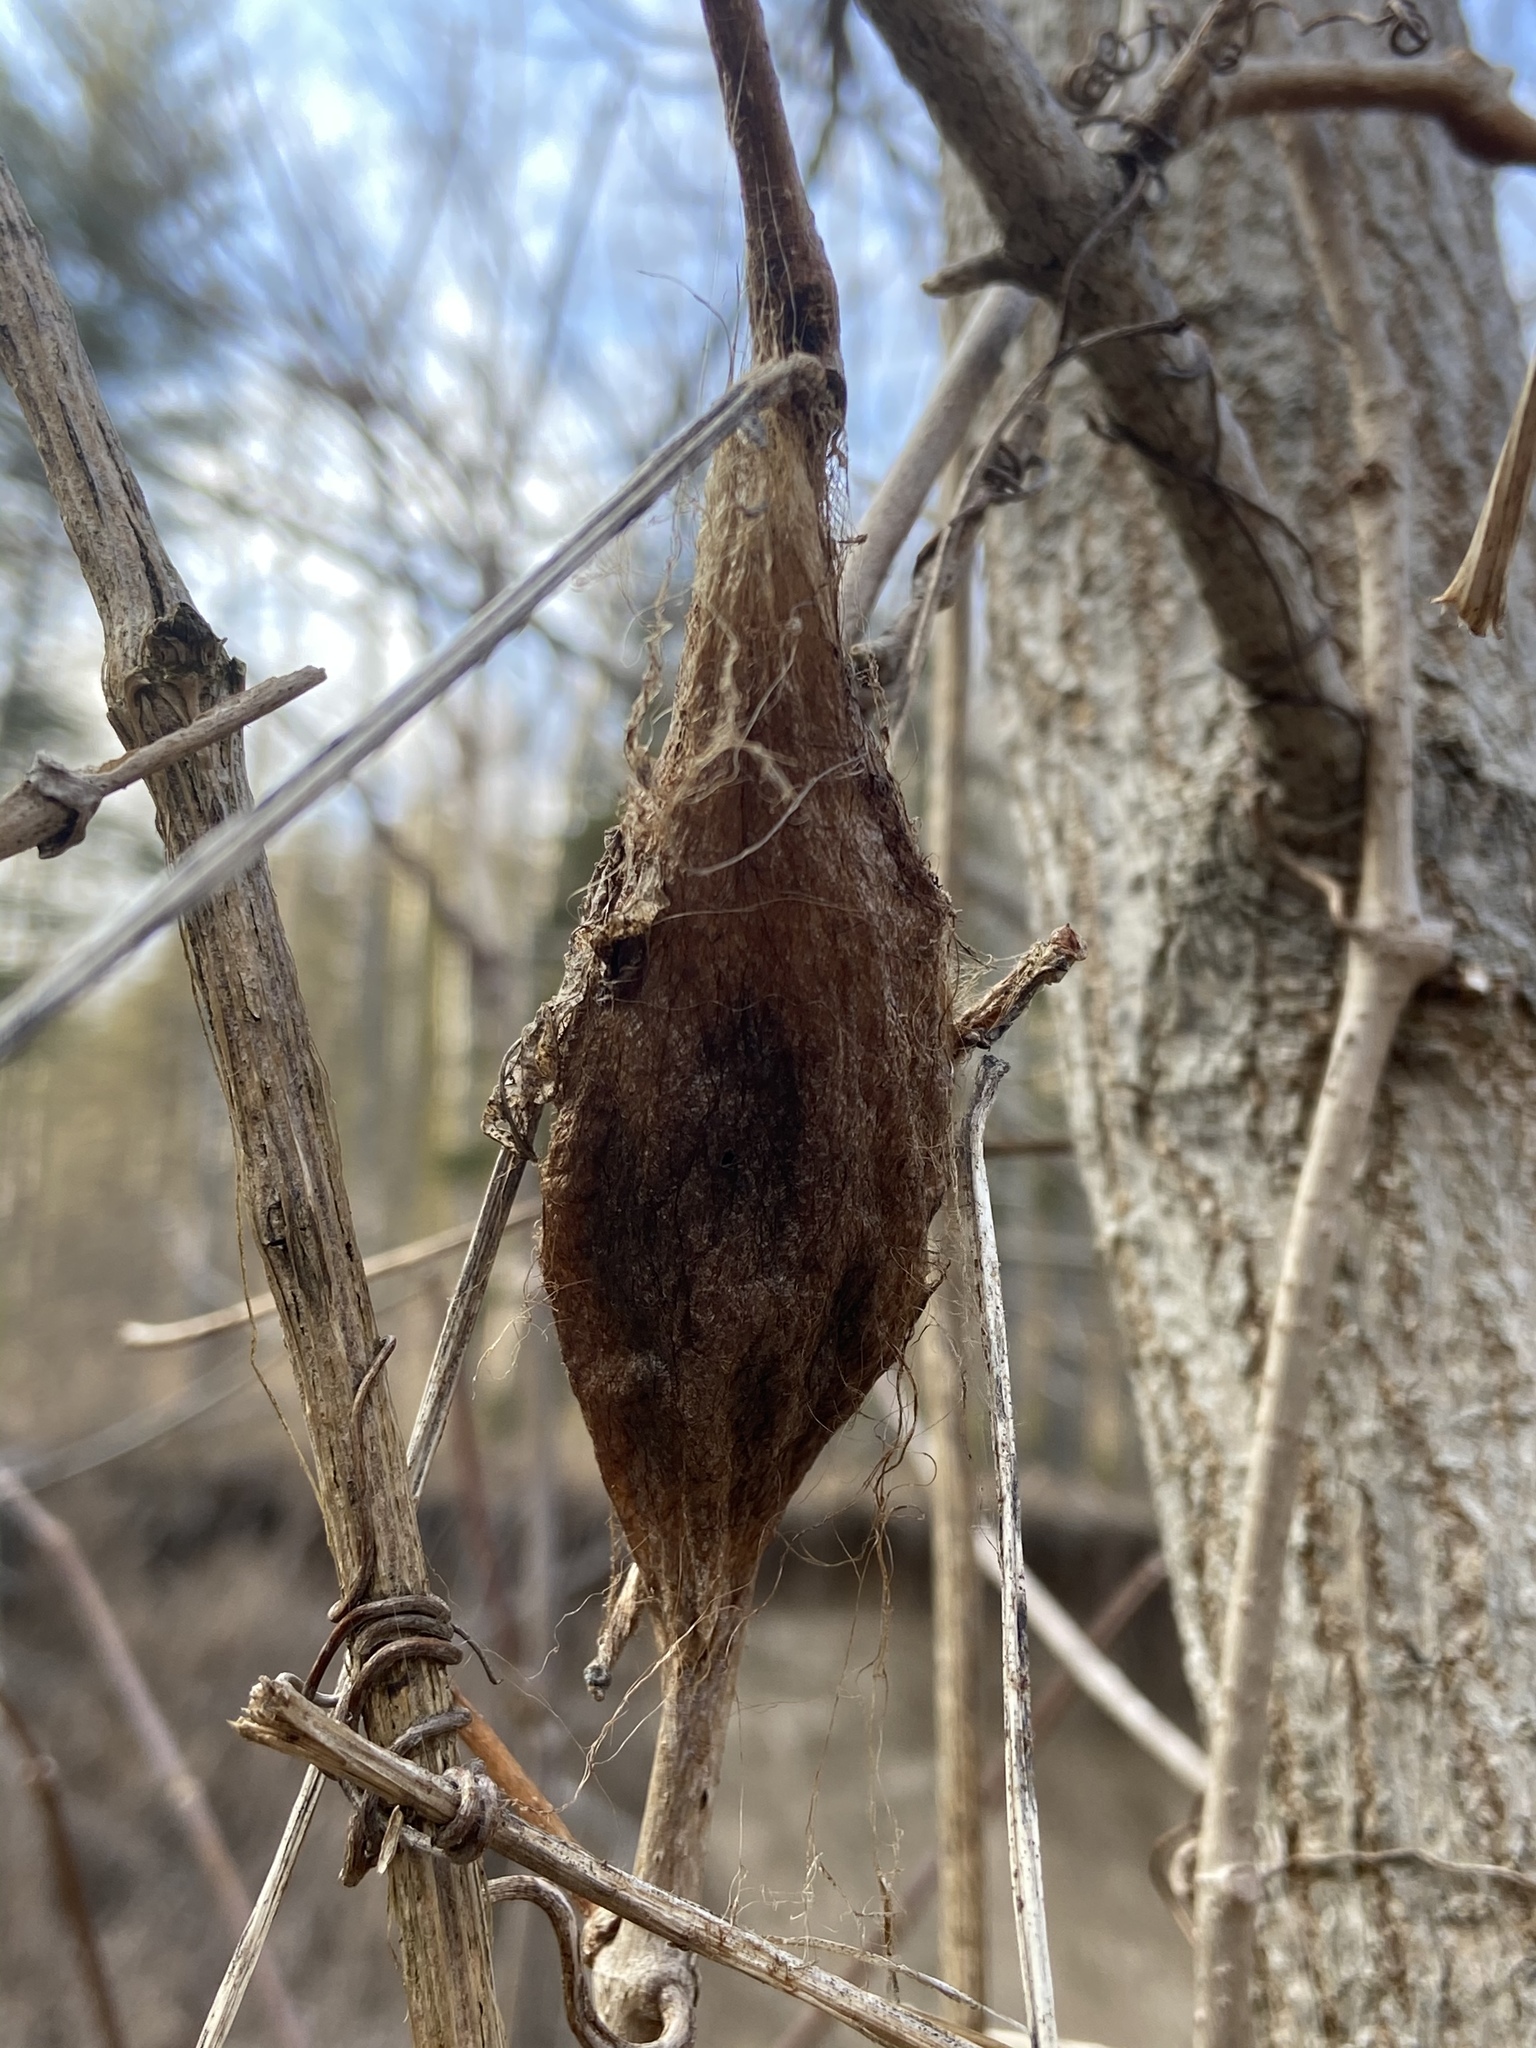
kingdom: Animalia
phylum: Arthropoda
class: Insecta
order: Lepidoptera
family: Saturniidae
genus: Hyalophora
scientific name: Hyalophora cecropia
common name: Cecropia silkmoth
